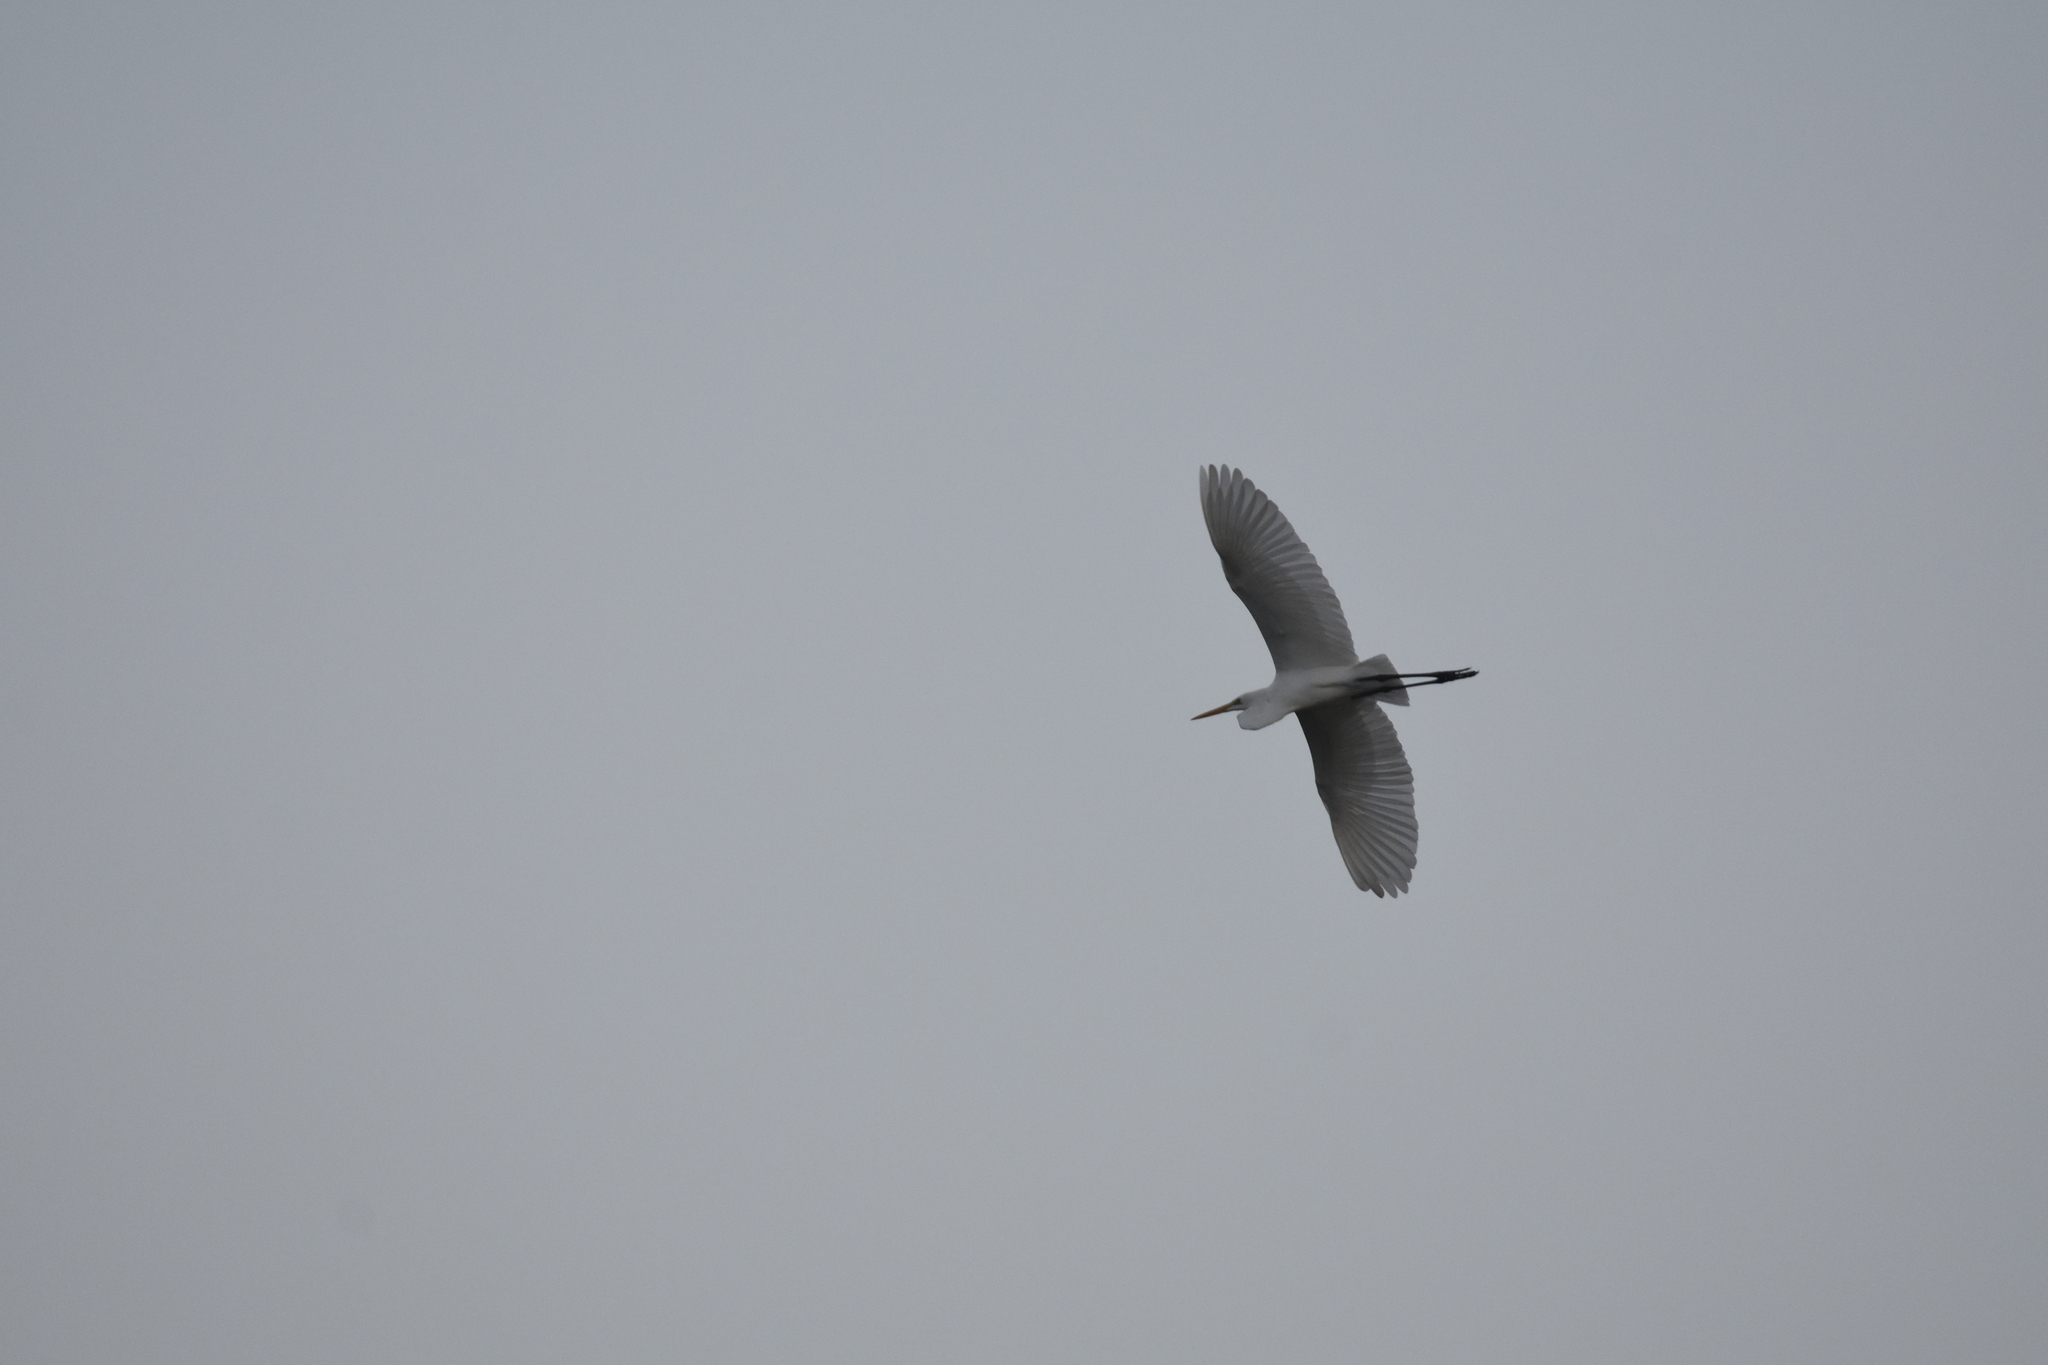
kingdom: Animalia
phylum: Chordata
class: Aves
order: Pelecaniformes
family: Ardeidae
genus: Ardea
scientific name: Ardea alba
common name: Great egret
